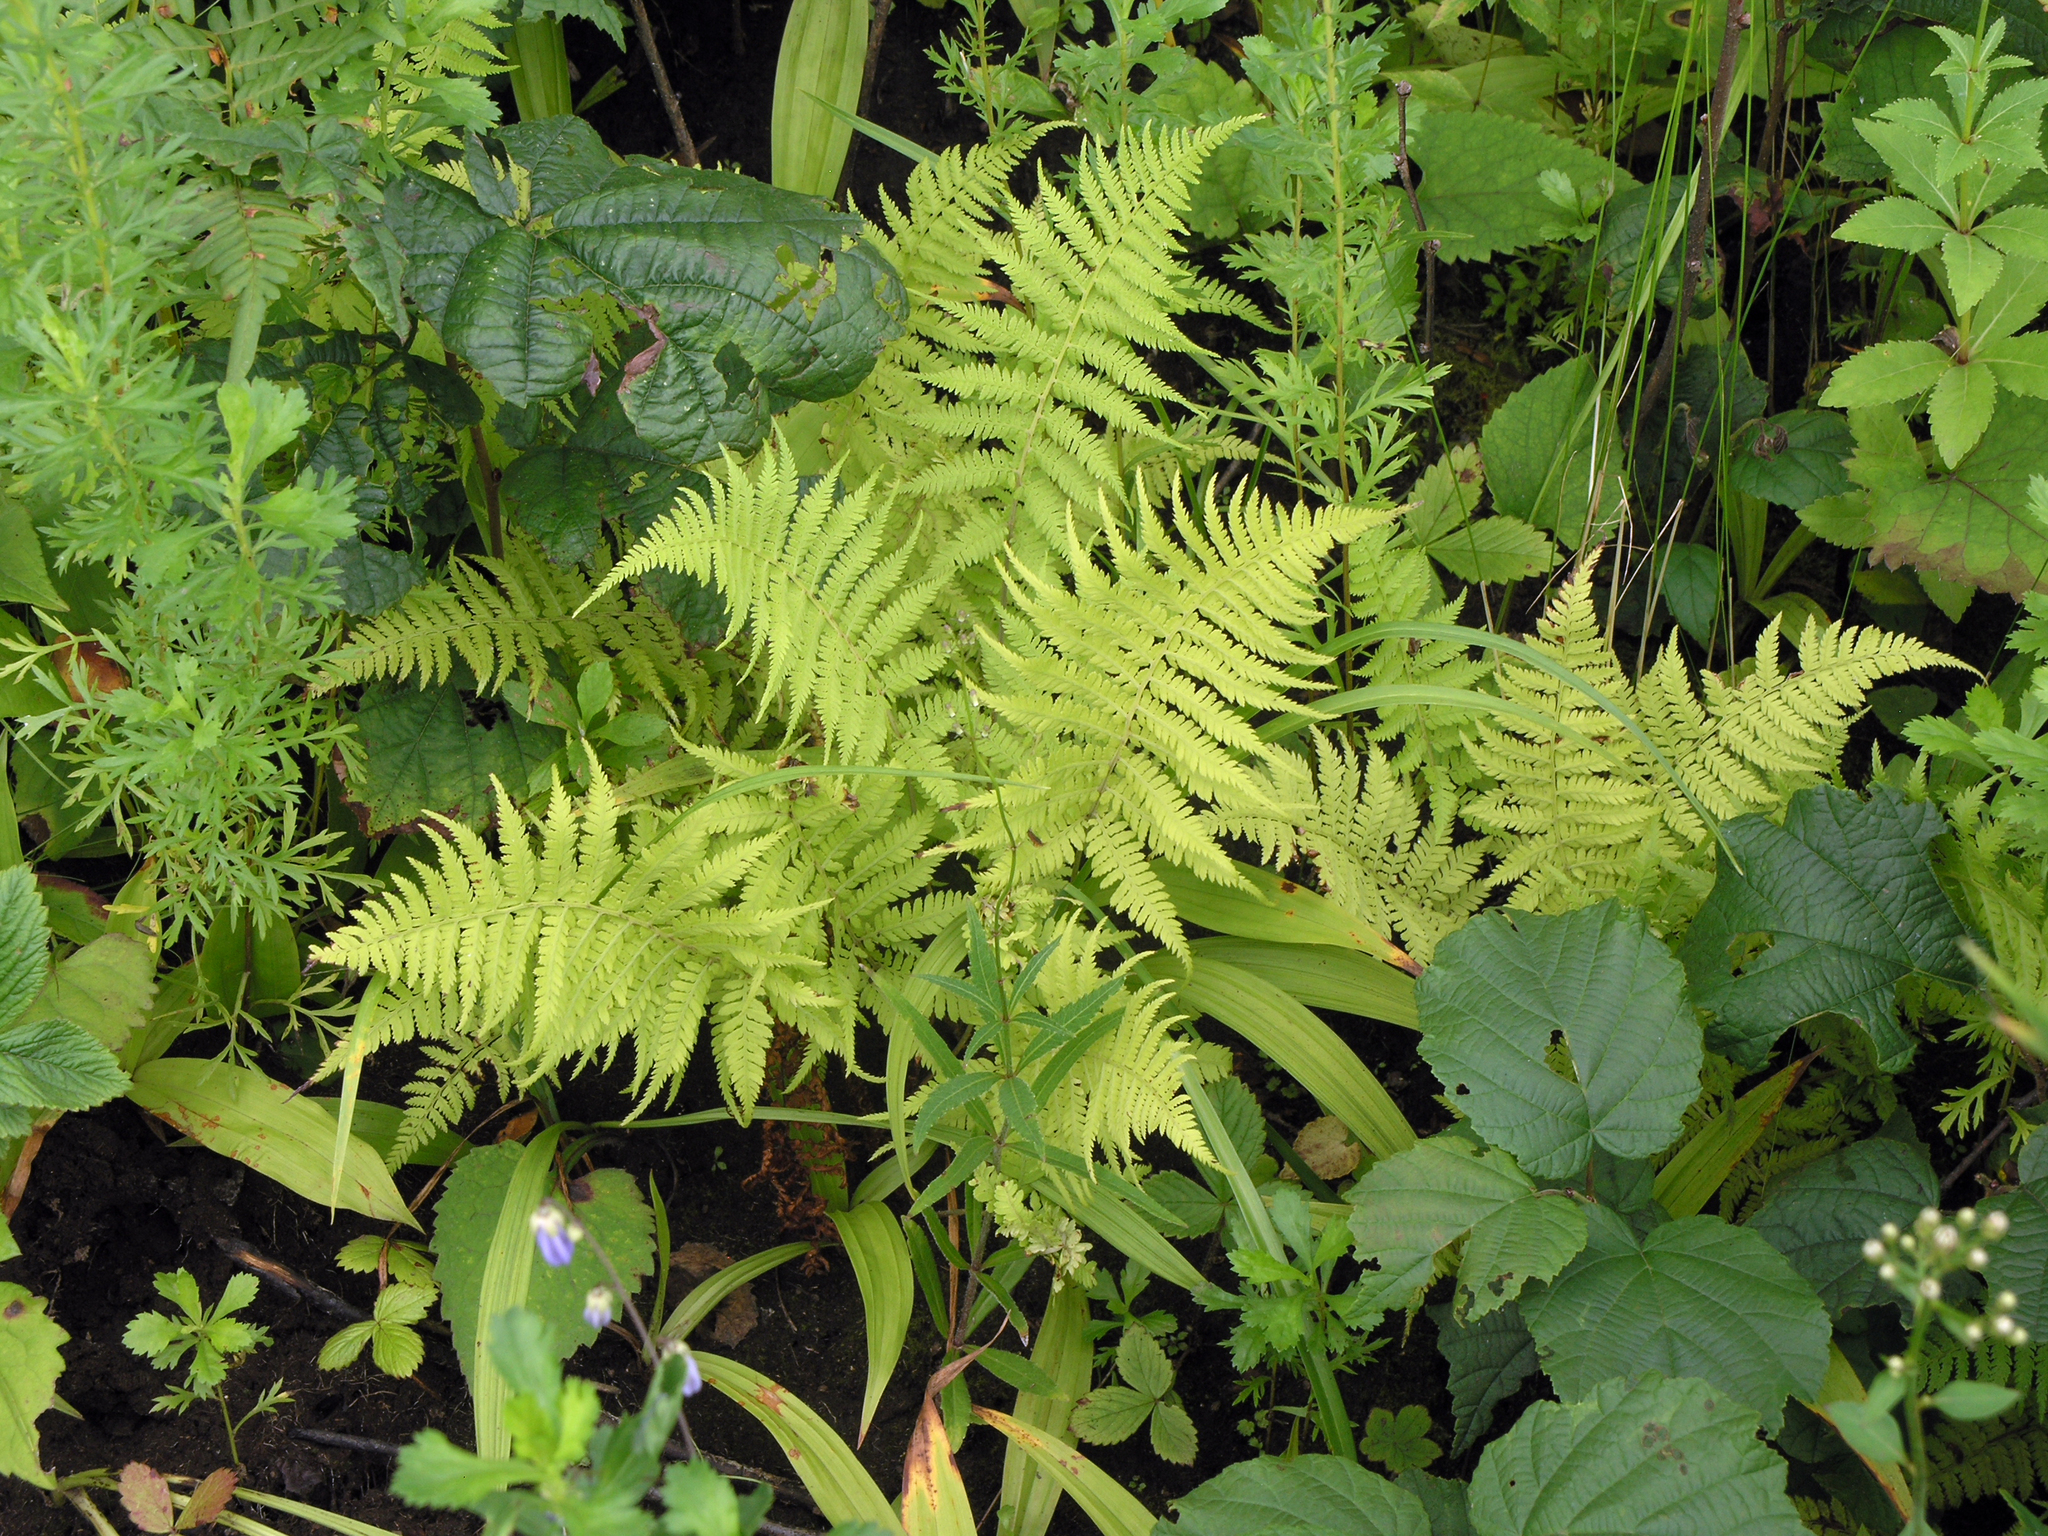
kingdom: Plantae
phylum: Tracheophyta
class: Polypodiopsida
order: Polypodiales
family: Athyriaceae
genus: Athyrium
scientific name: Athyrium yokoscense
